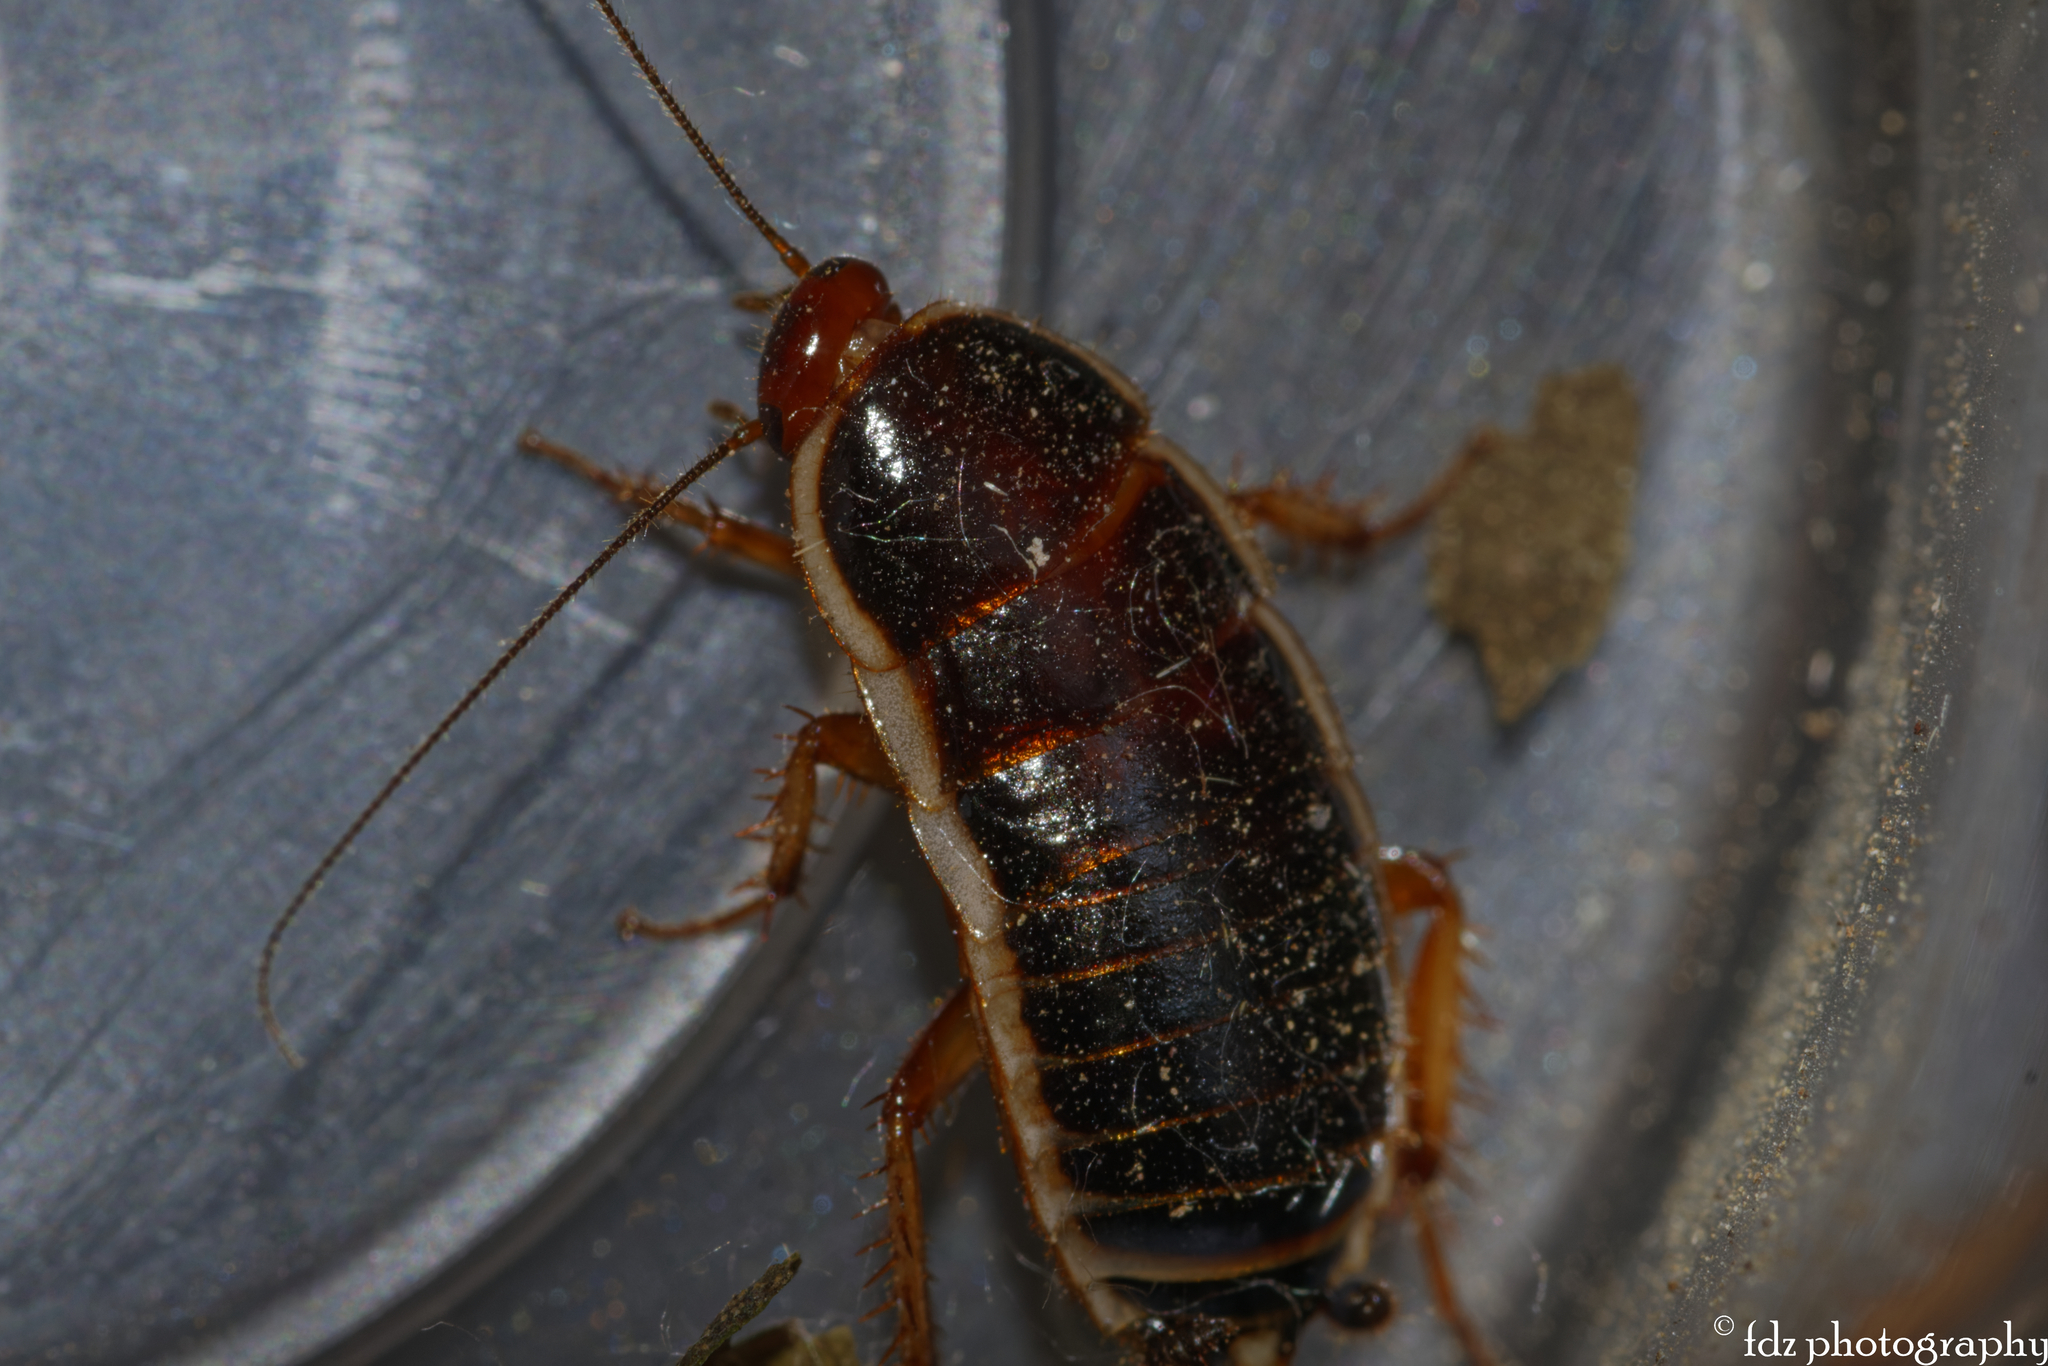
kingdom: Animalia
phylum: Arthropoda
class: Insecta
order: Blattodea
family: Ectobiidae
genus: Loboptera
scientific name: Loboptera decipiens
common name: Lobe-winged cockroach
